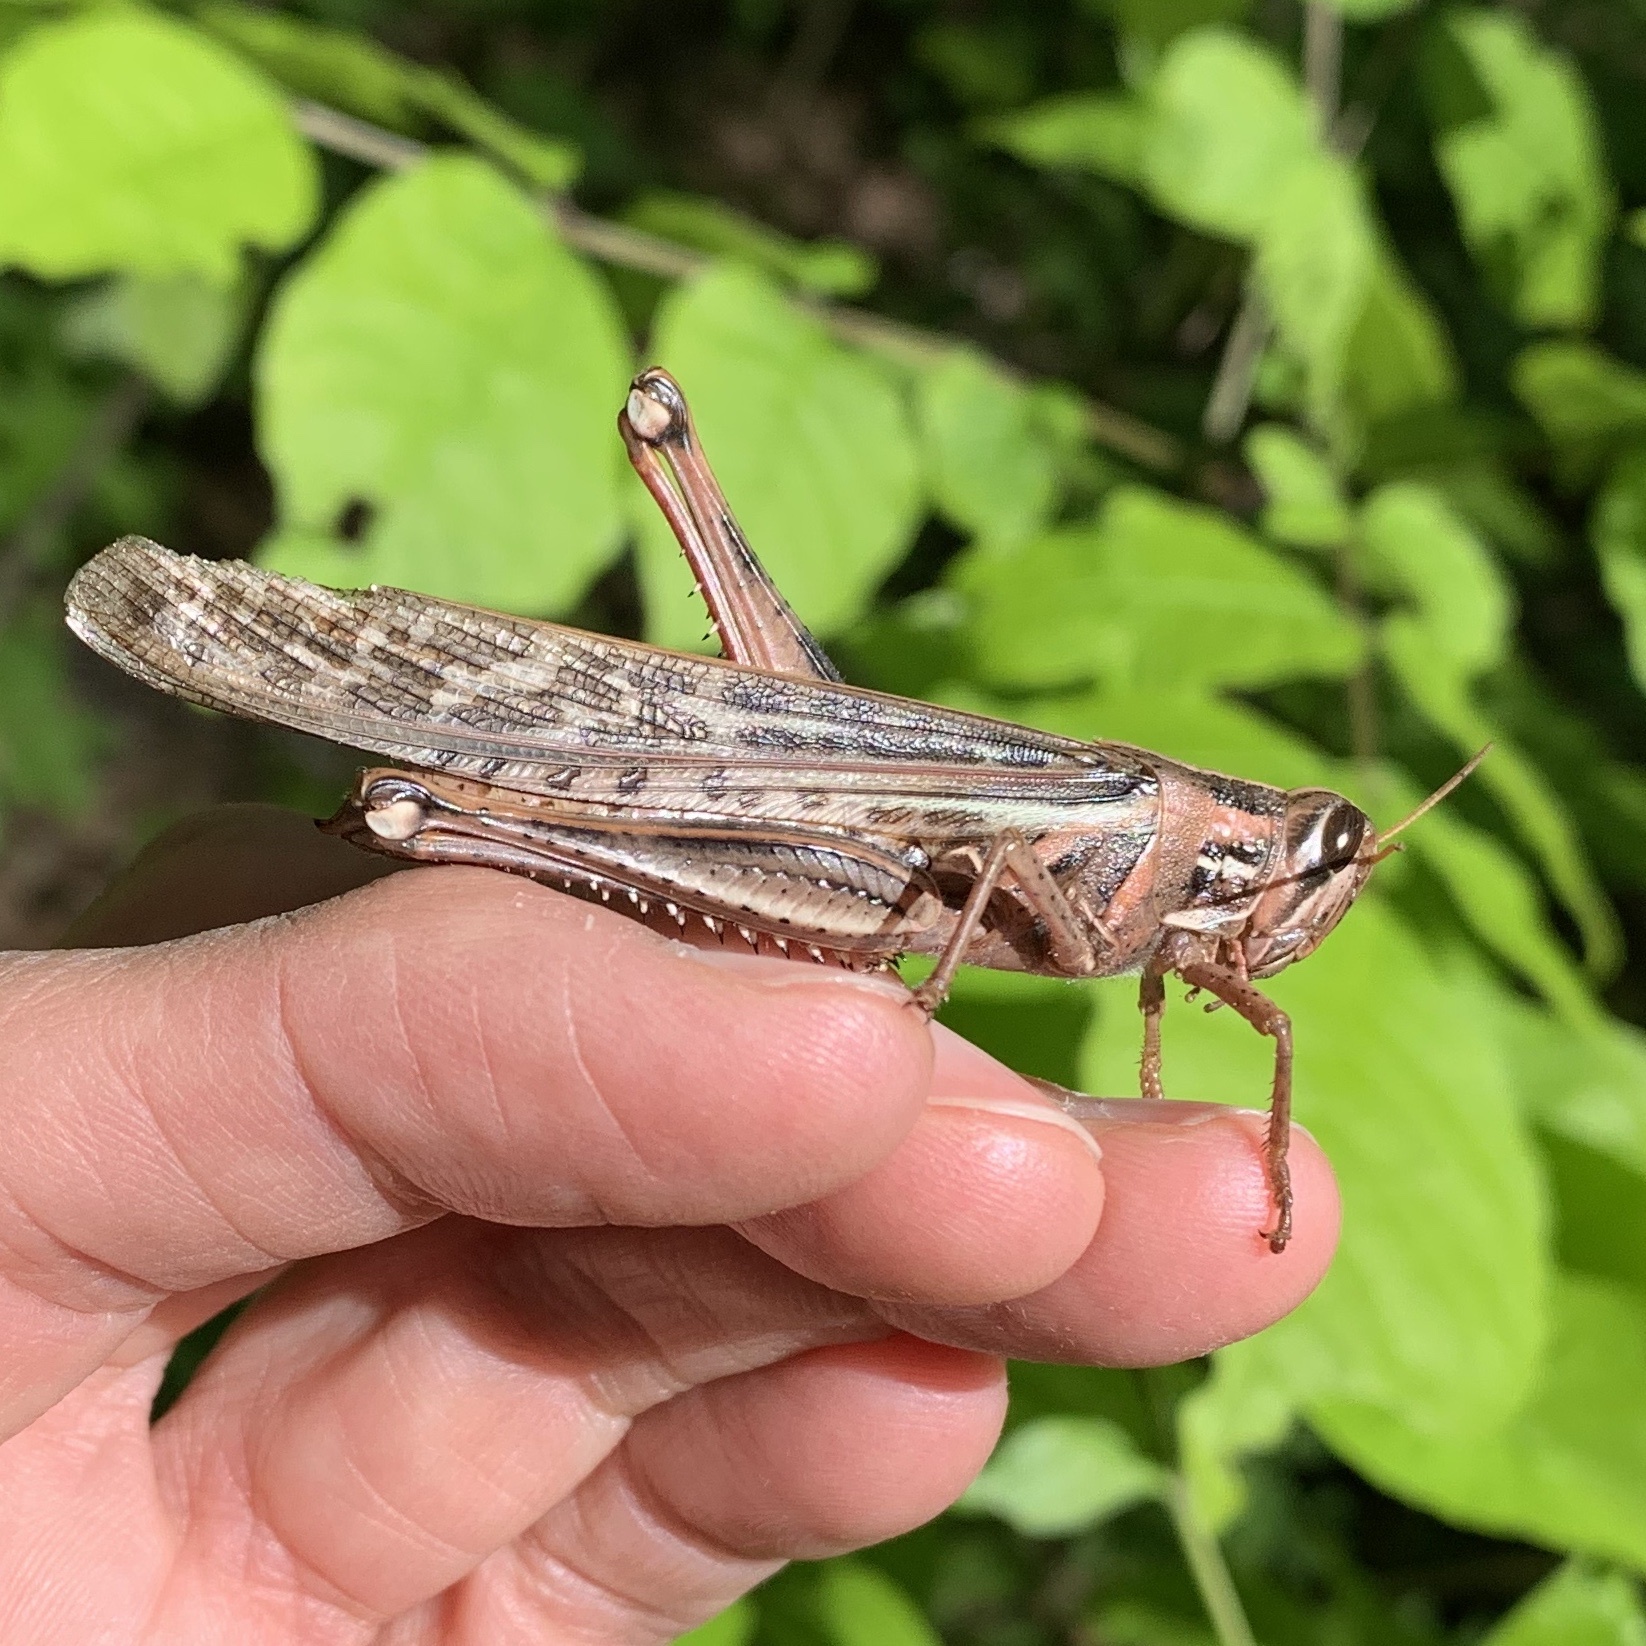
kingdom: Animalia
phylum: Arthropoda
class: Insecta
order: Orthoptera
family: Acrididae
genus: Schistocerca
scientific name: Schistocerca americana
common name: American bird locust
